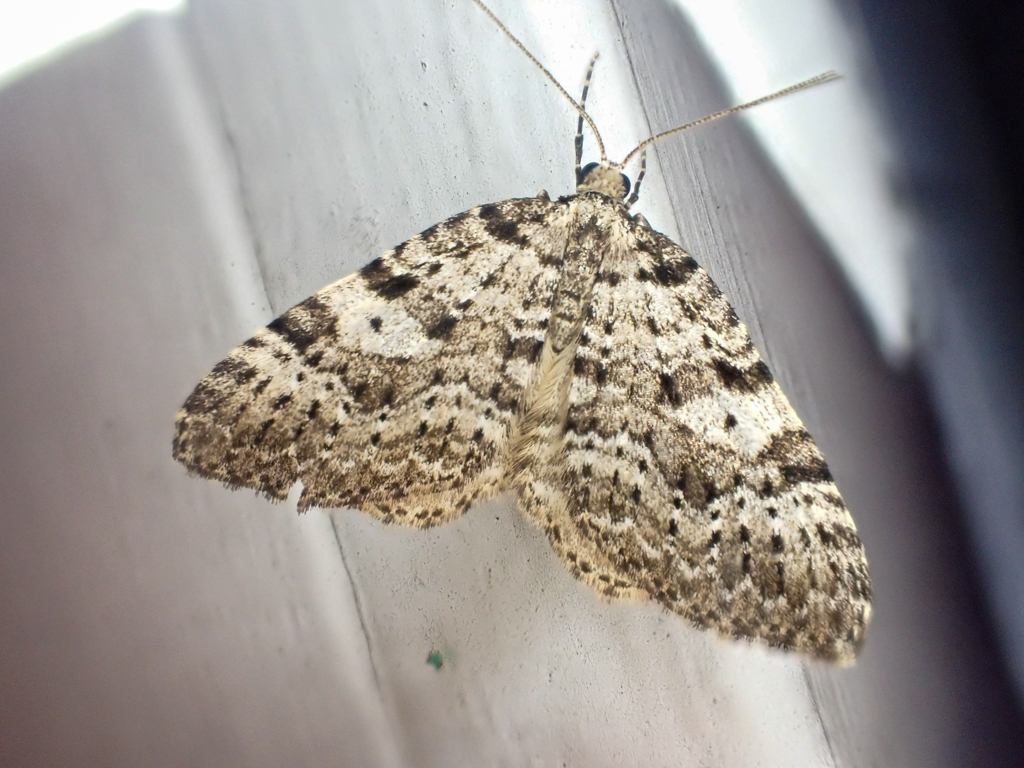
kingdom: Animalia
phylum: Arthropoda
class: Insecta
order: Lepidoptera
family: Geometridae
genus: Perizoma
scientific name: Perizoma curvilinea
